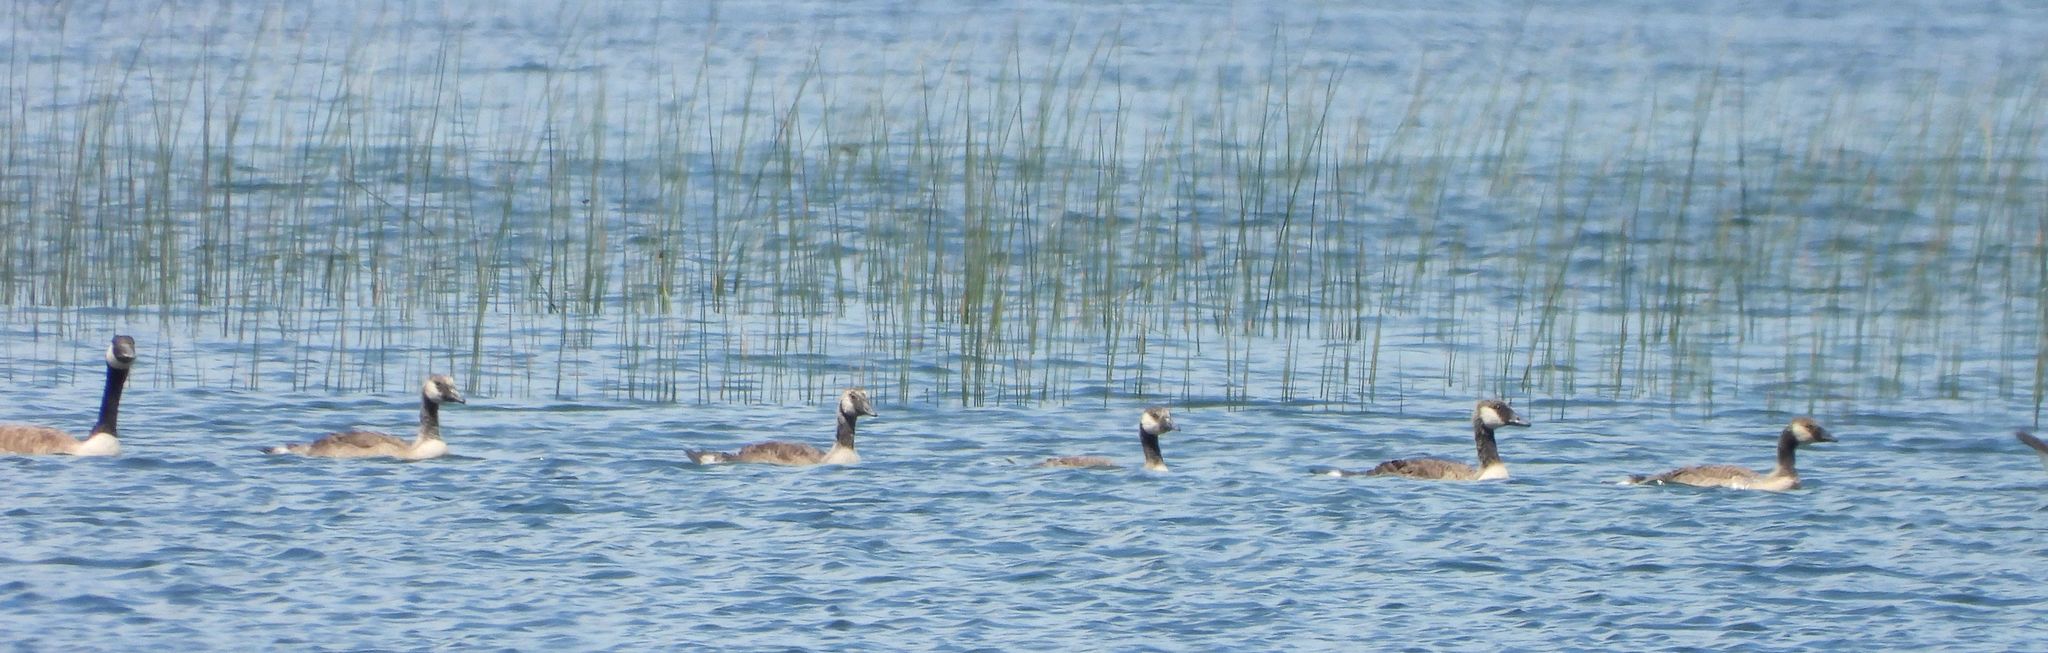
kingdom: Animalia
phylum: Chordata
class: Aves
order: Anseriformes
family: Anatidae
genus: Branta
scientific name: Branta canadensis
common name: Canada goose
